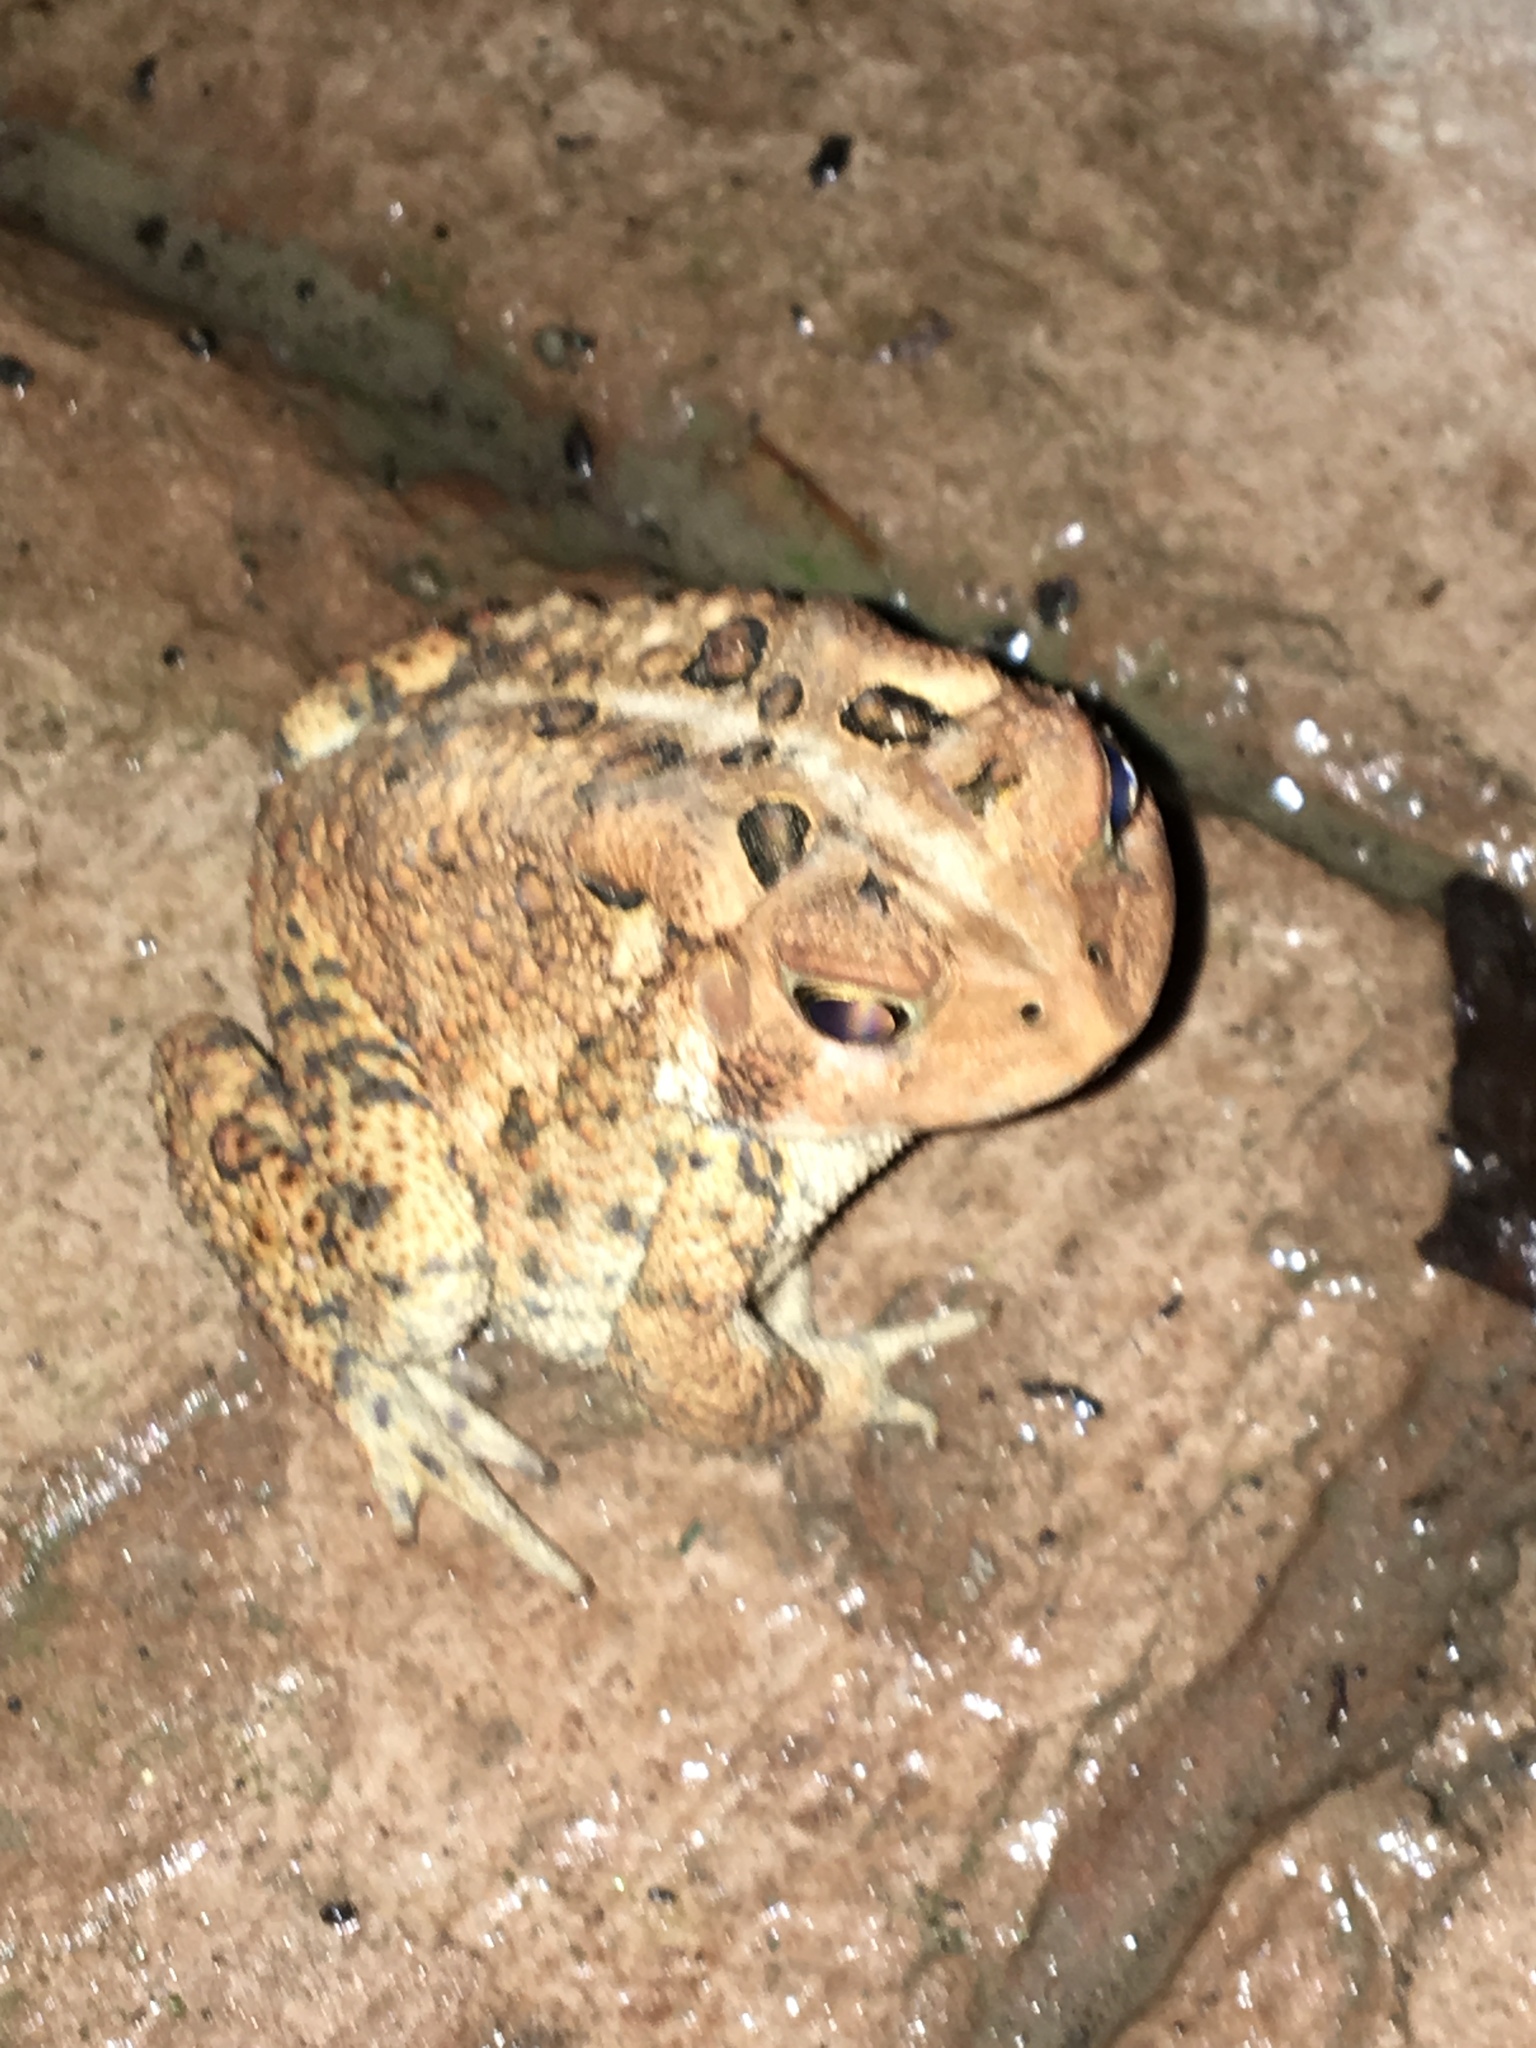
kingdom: Animalia
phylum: Chordata
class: Amphibia
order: Anura
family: Bufonidae
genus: Anaxyrus
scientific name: Anaxyrus americanus
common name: American toad
